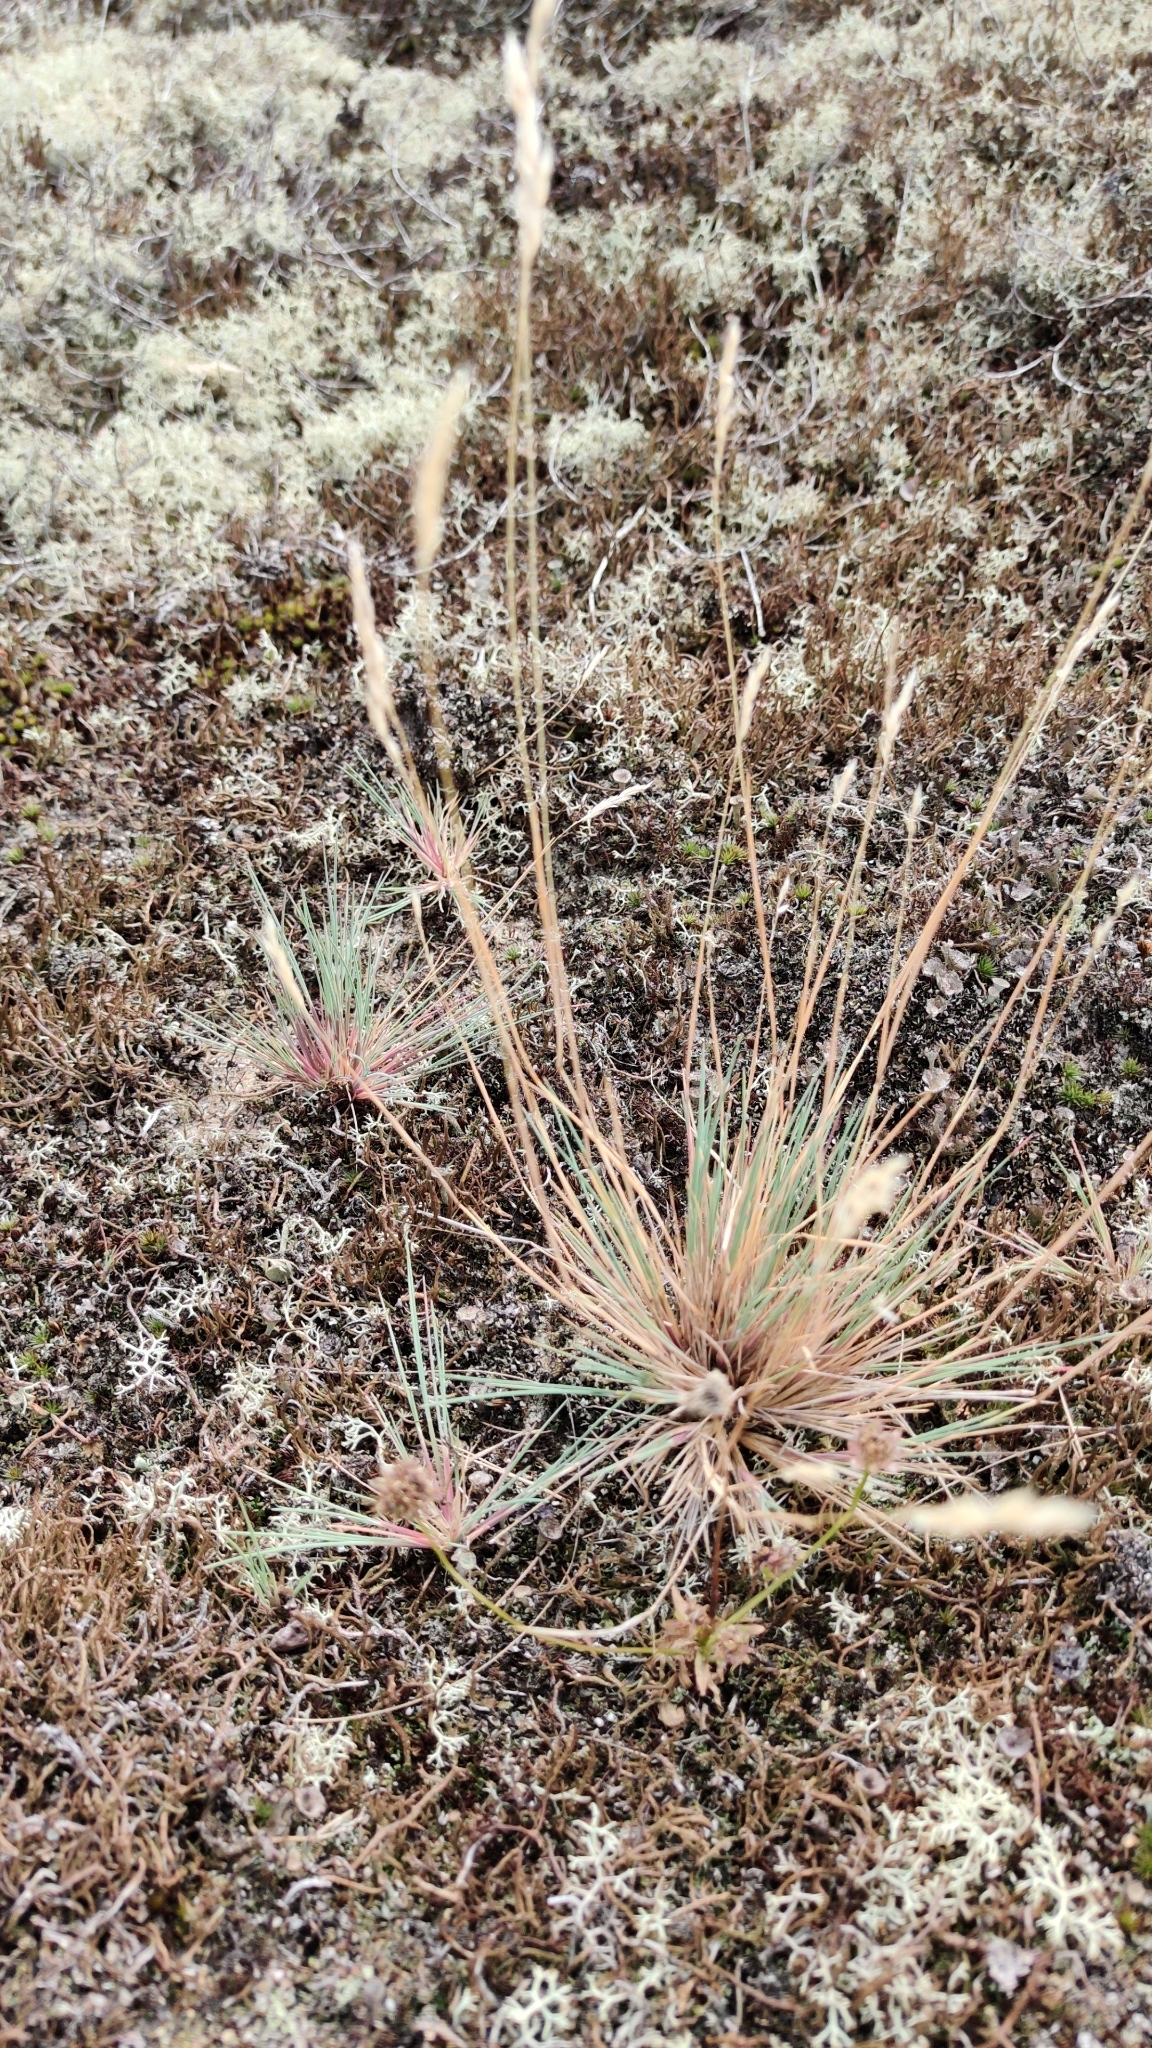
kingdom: Plantae
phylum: Tracheophyta
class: Liliopsida
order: Poales
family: Poaceae
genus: Corynephorus
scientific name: Corynephorus canescens
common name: Grey hair-grass
